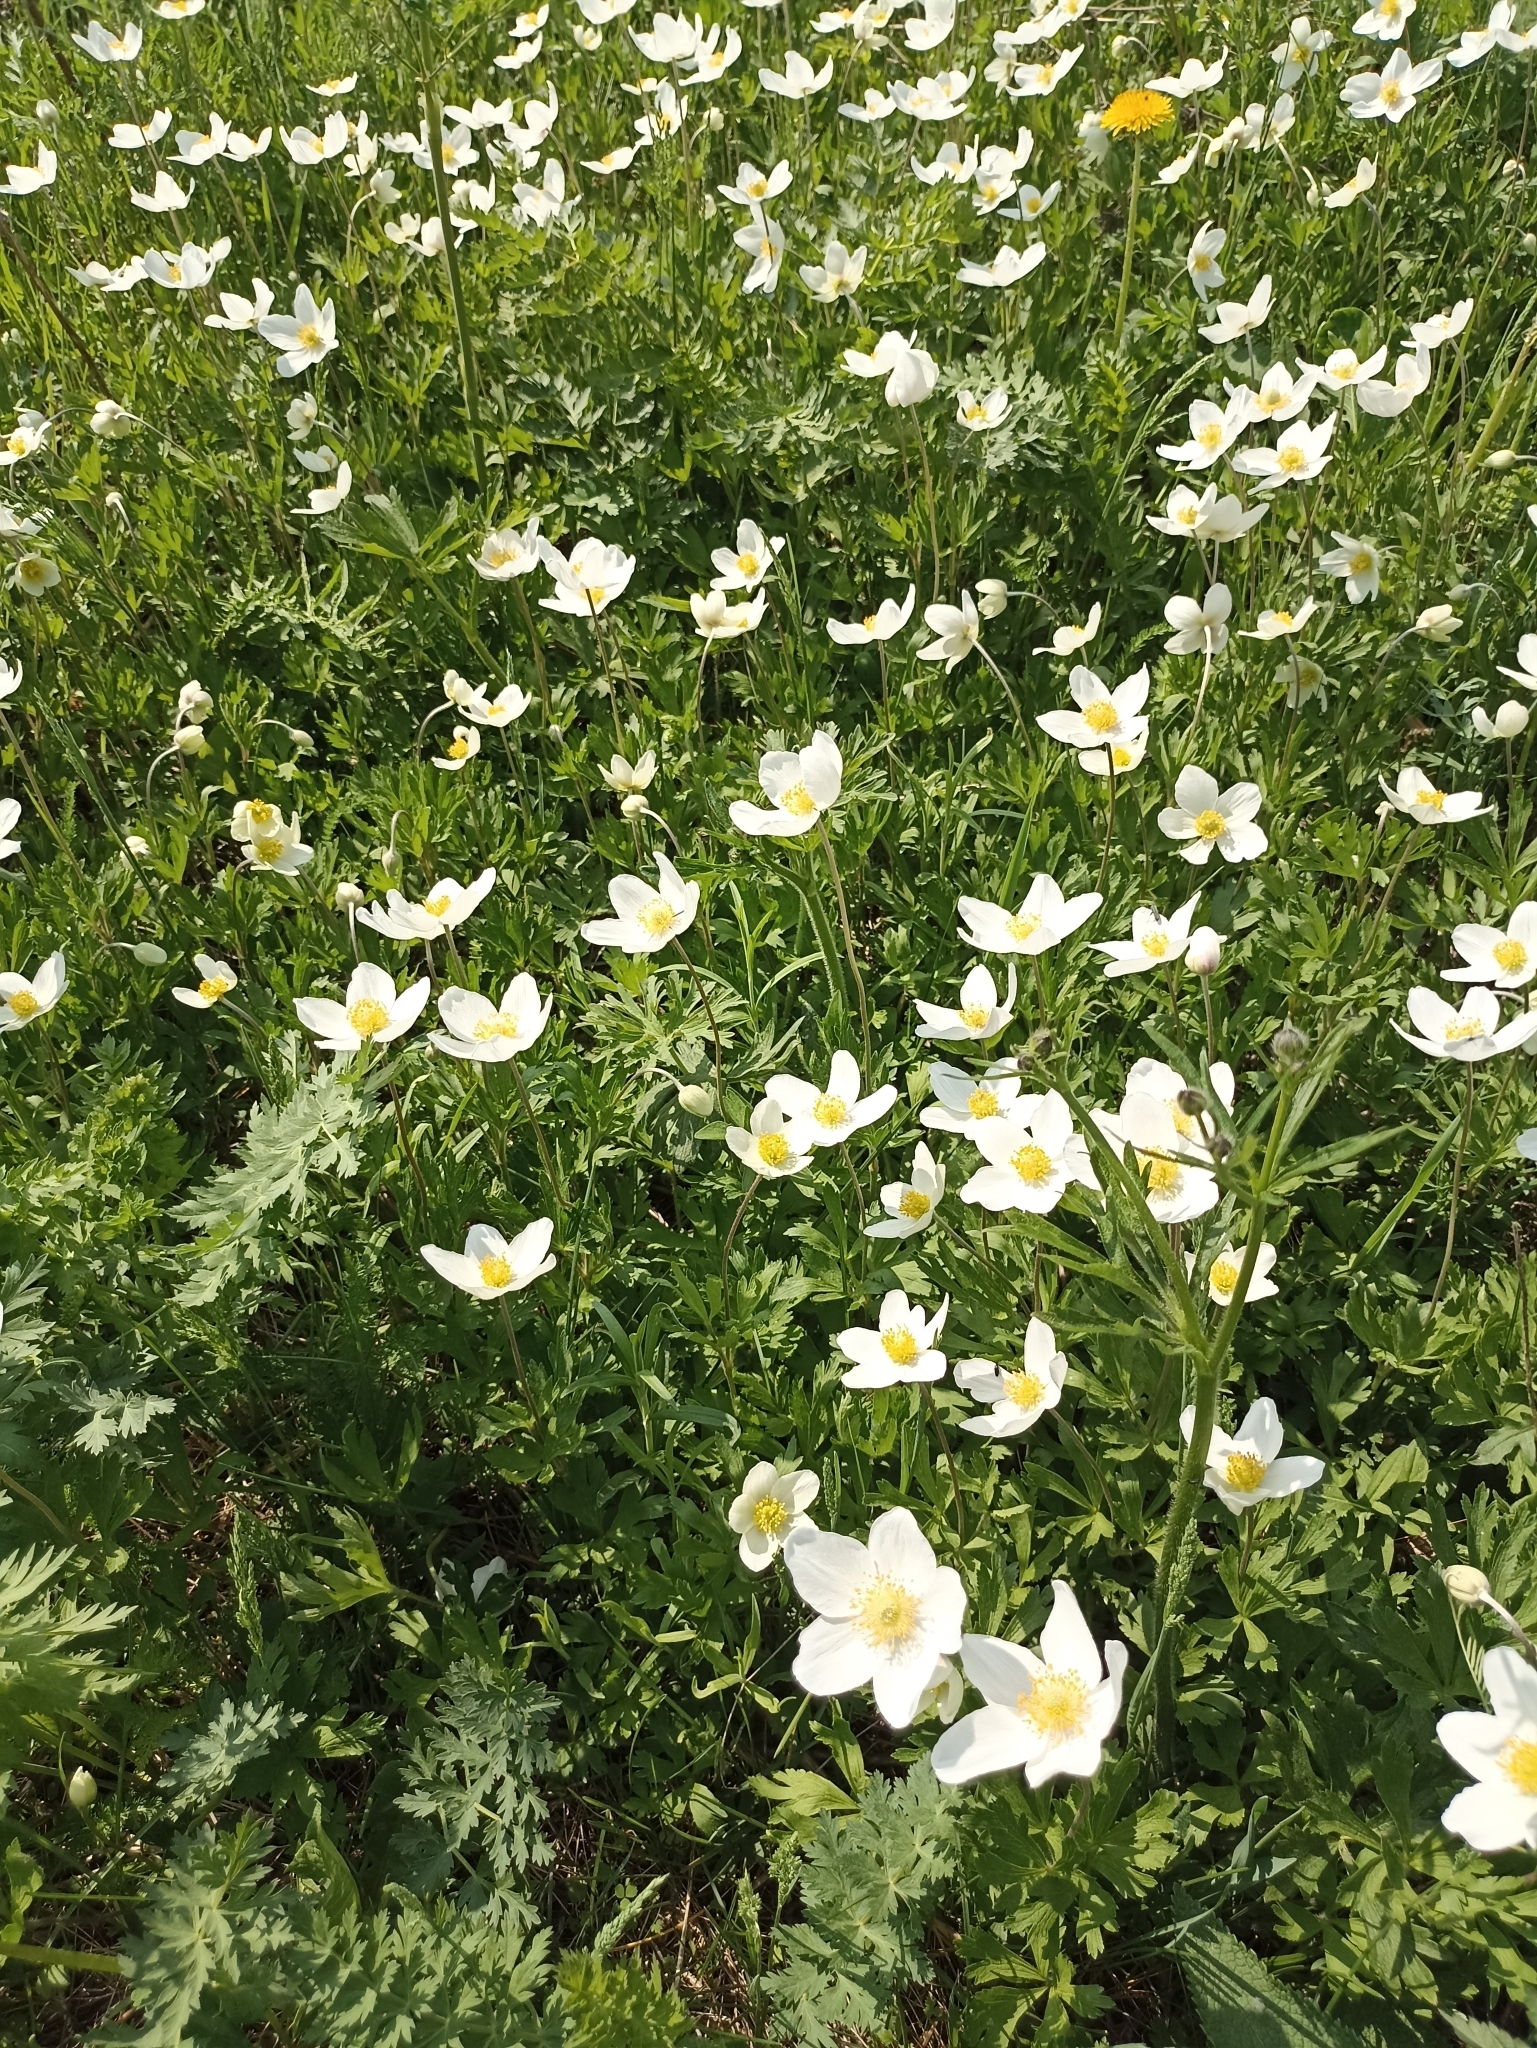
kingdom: Plantae
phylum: Tracheophyta
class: Magnoliopsida
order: Ranunculales
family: Ranunculaceae
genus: Anemone
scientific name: Anemone sylvestris
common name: Snowdrop anemone
